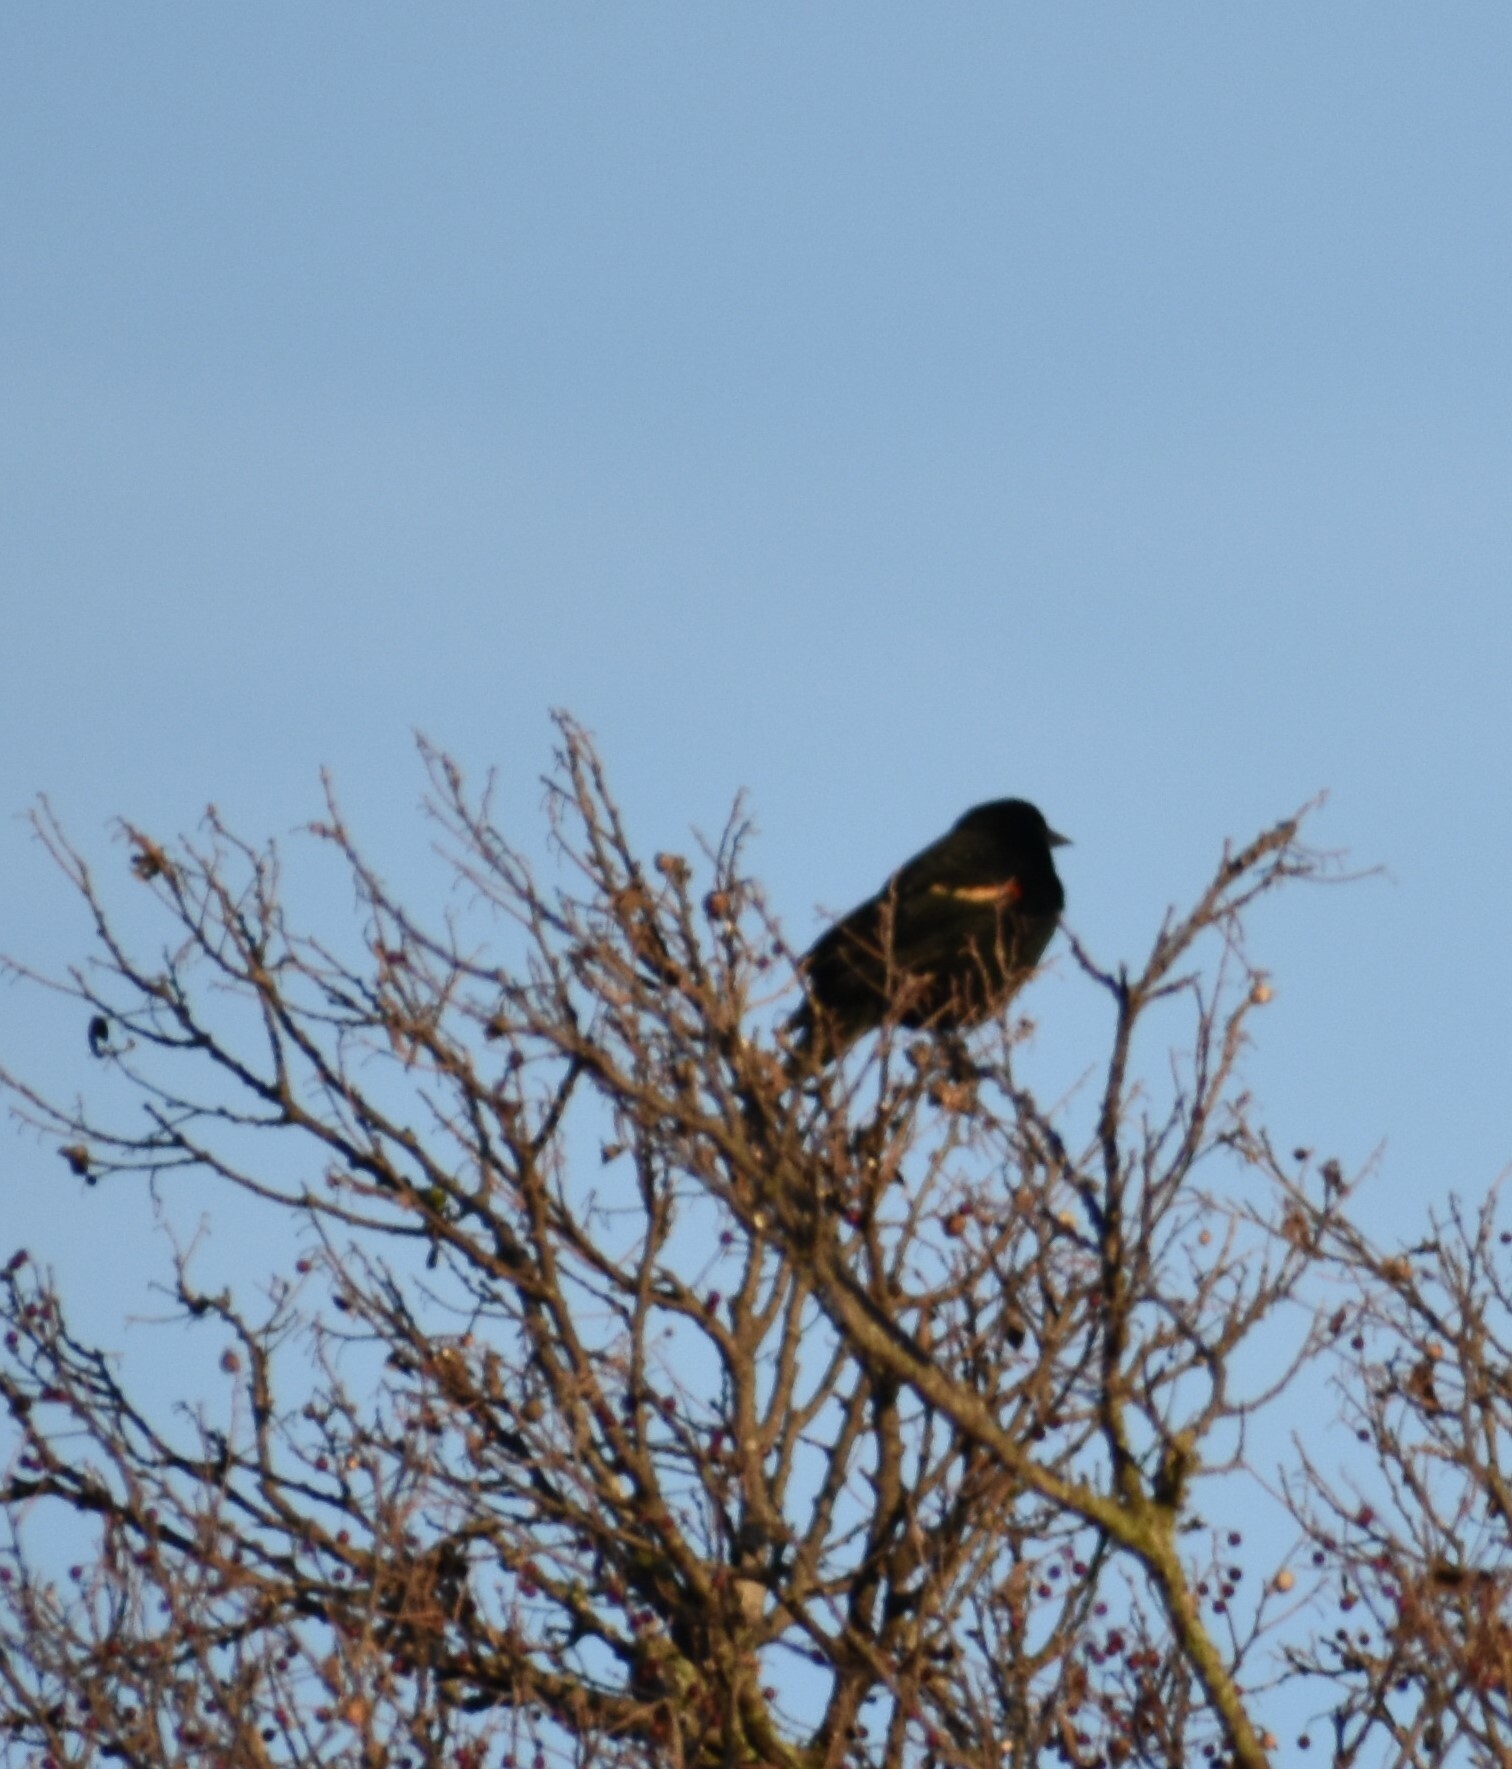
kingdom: Animalia
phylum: Chordata
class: Aves
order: Passeriformes
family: Icteridae
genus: Agelaius
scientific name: Agelaius phoeniceus
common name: Red-winged blackbird
